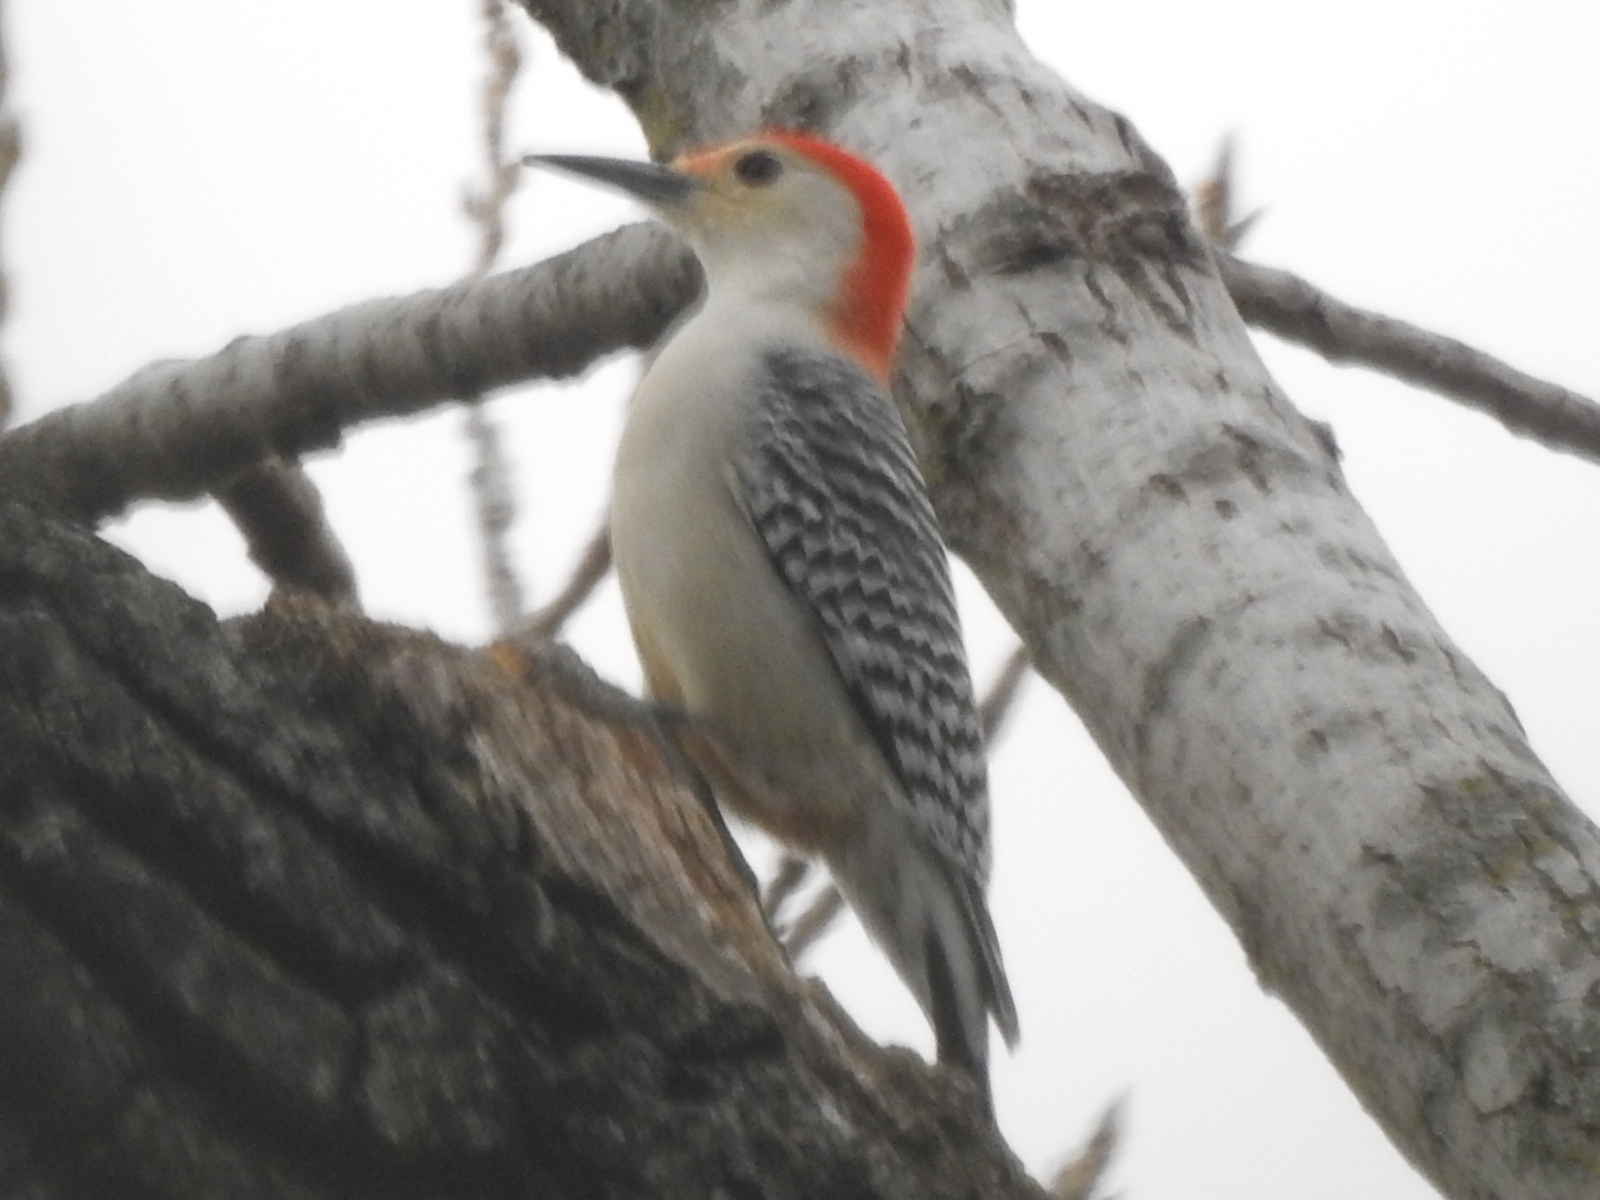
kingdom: Animalia
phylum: Chordata
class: Aves
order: Piciformes
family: Picidae
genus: Melanerpes
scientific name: Melanerpes carolinus
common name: Red-bellied woodpecker
